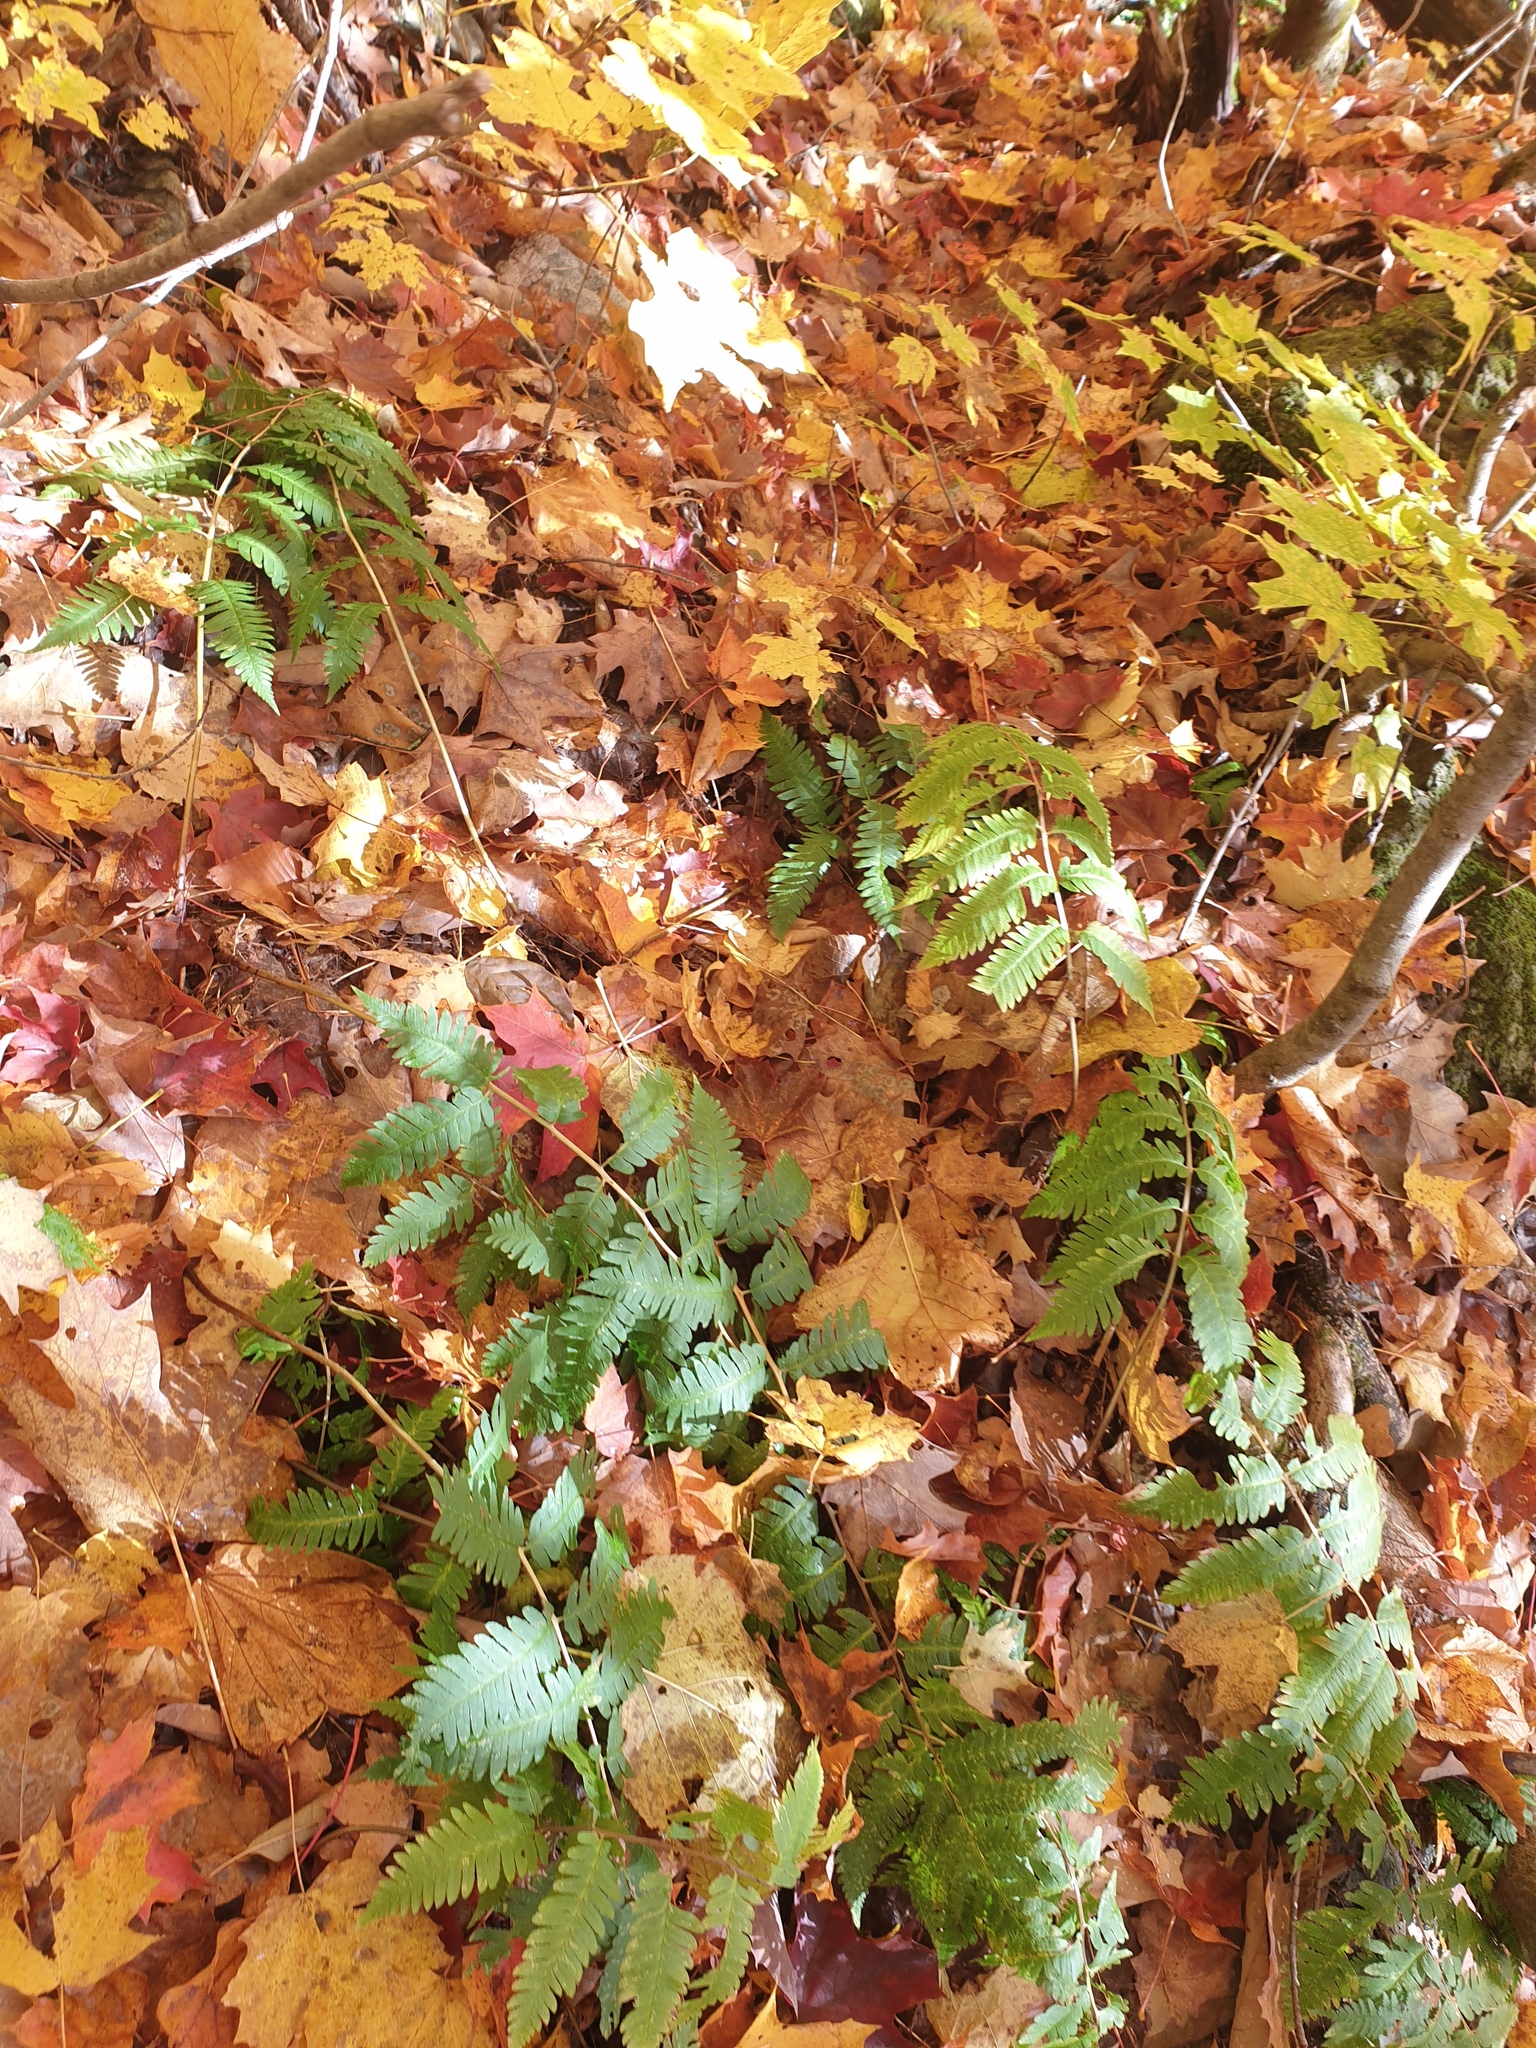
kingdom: Plantae
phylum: Tracheophyta
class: Polypodiopsida
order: Polypodiales
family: Dryopteridaceae
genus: Dryopteris
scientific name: Dryopteris goldieana
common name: Goldie's fern
